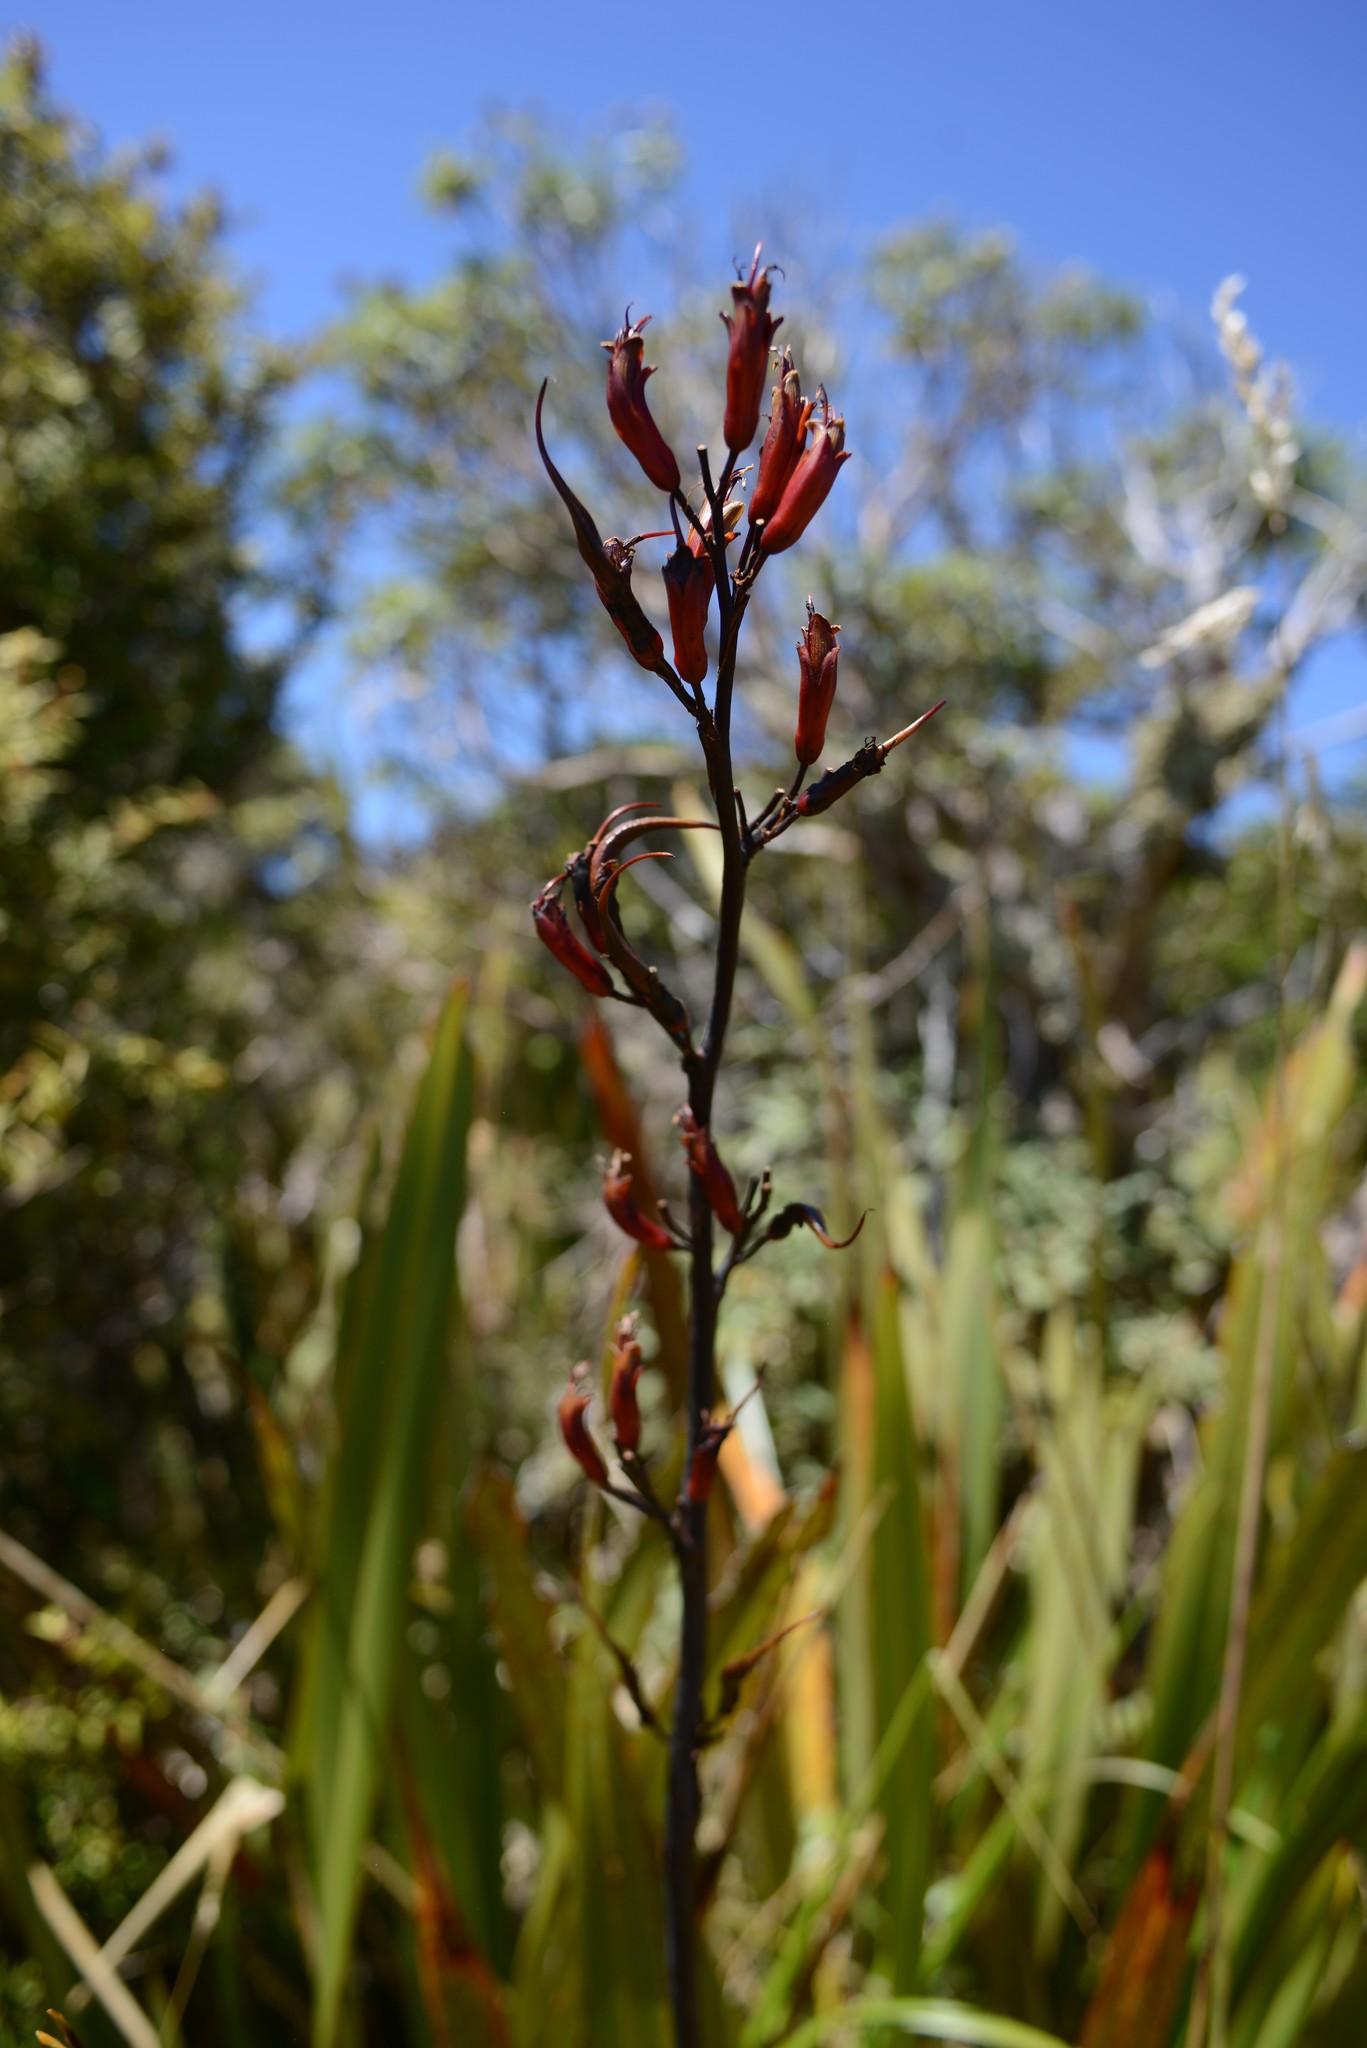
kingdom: Plantae
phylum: Tracheophyta
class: Liliopsida
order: Asparagales
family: Asphodelaceae
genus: Phormium
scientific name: Phormium colensoi
